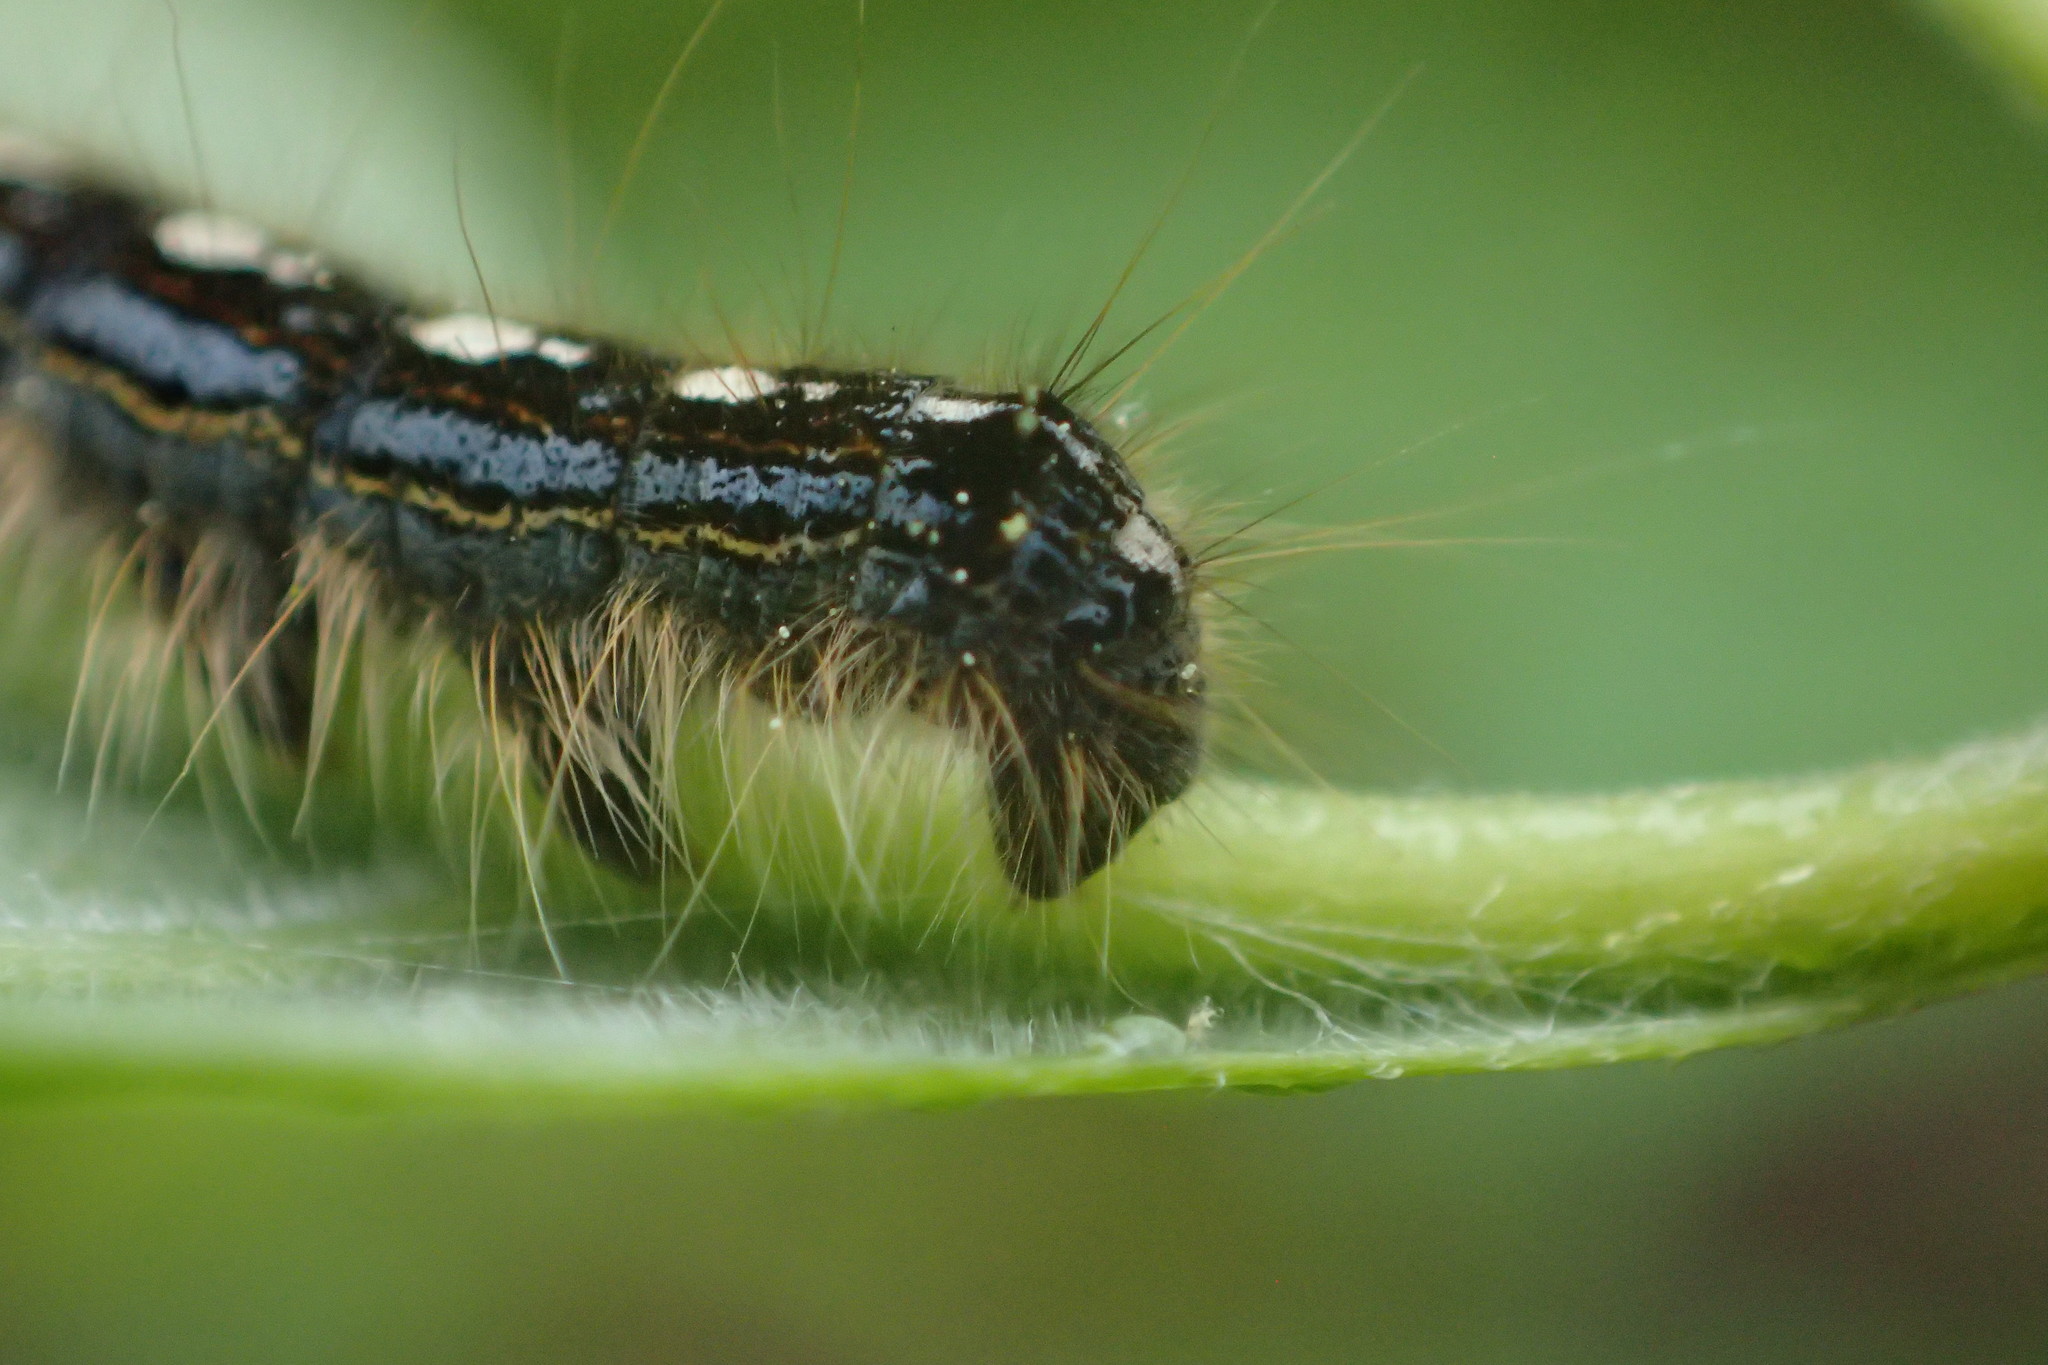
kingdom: Animalia
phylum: Arthropoda
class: Insecta
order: Lepidoptera
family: Lasiocampidae
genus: Malacosoma
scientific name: Malacosoma disstria
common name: Forest tent caterpillar
